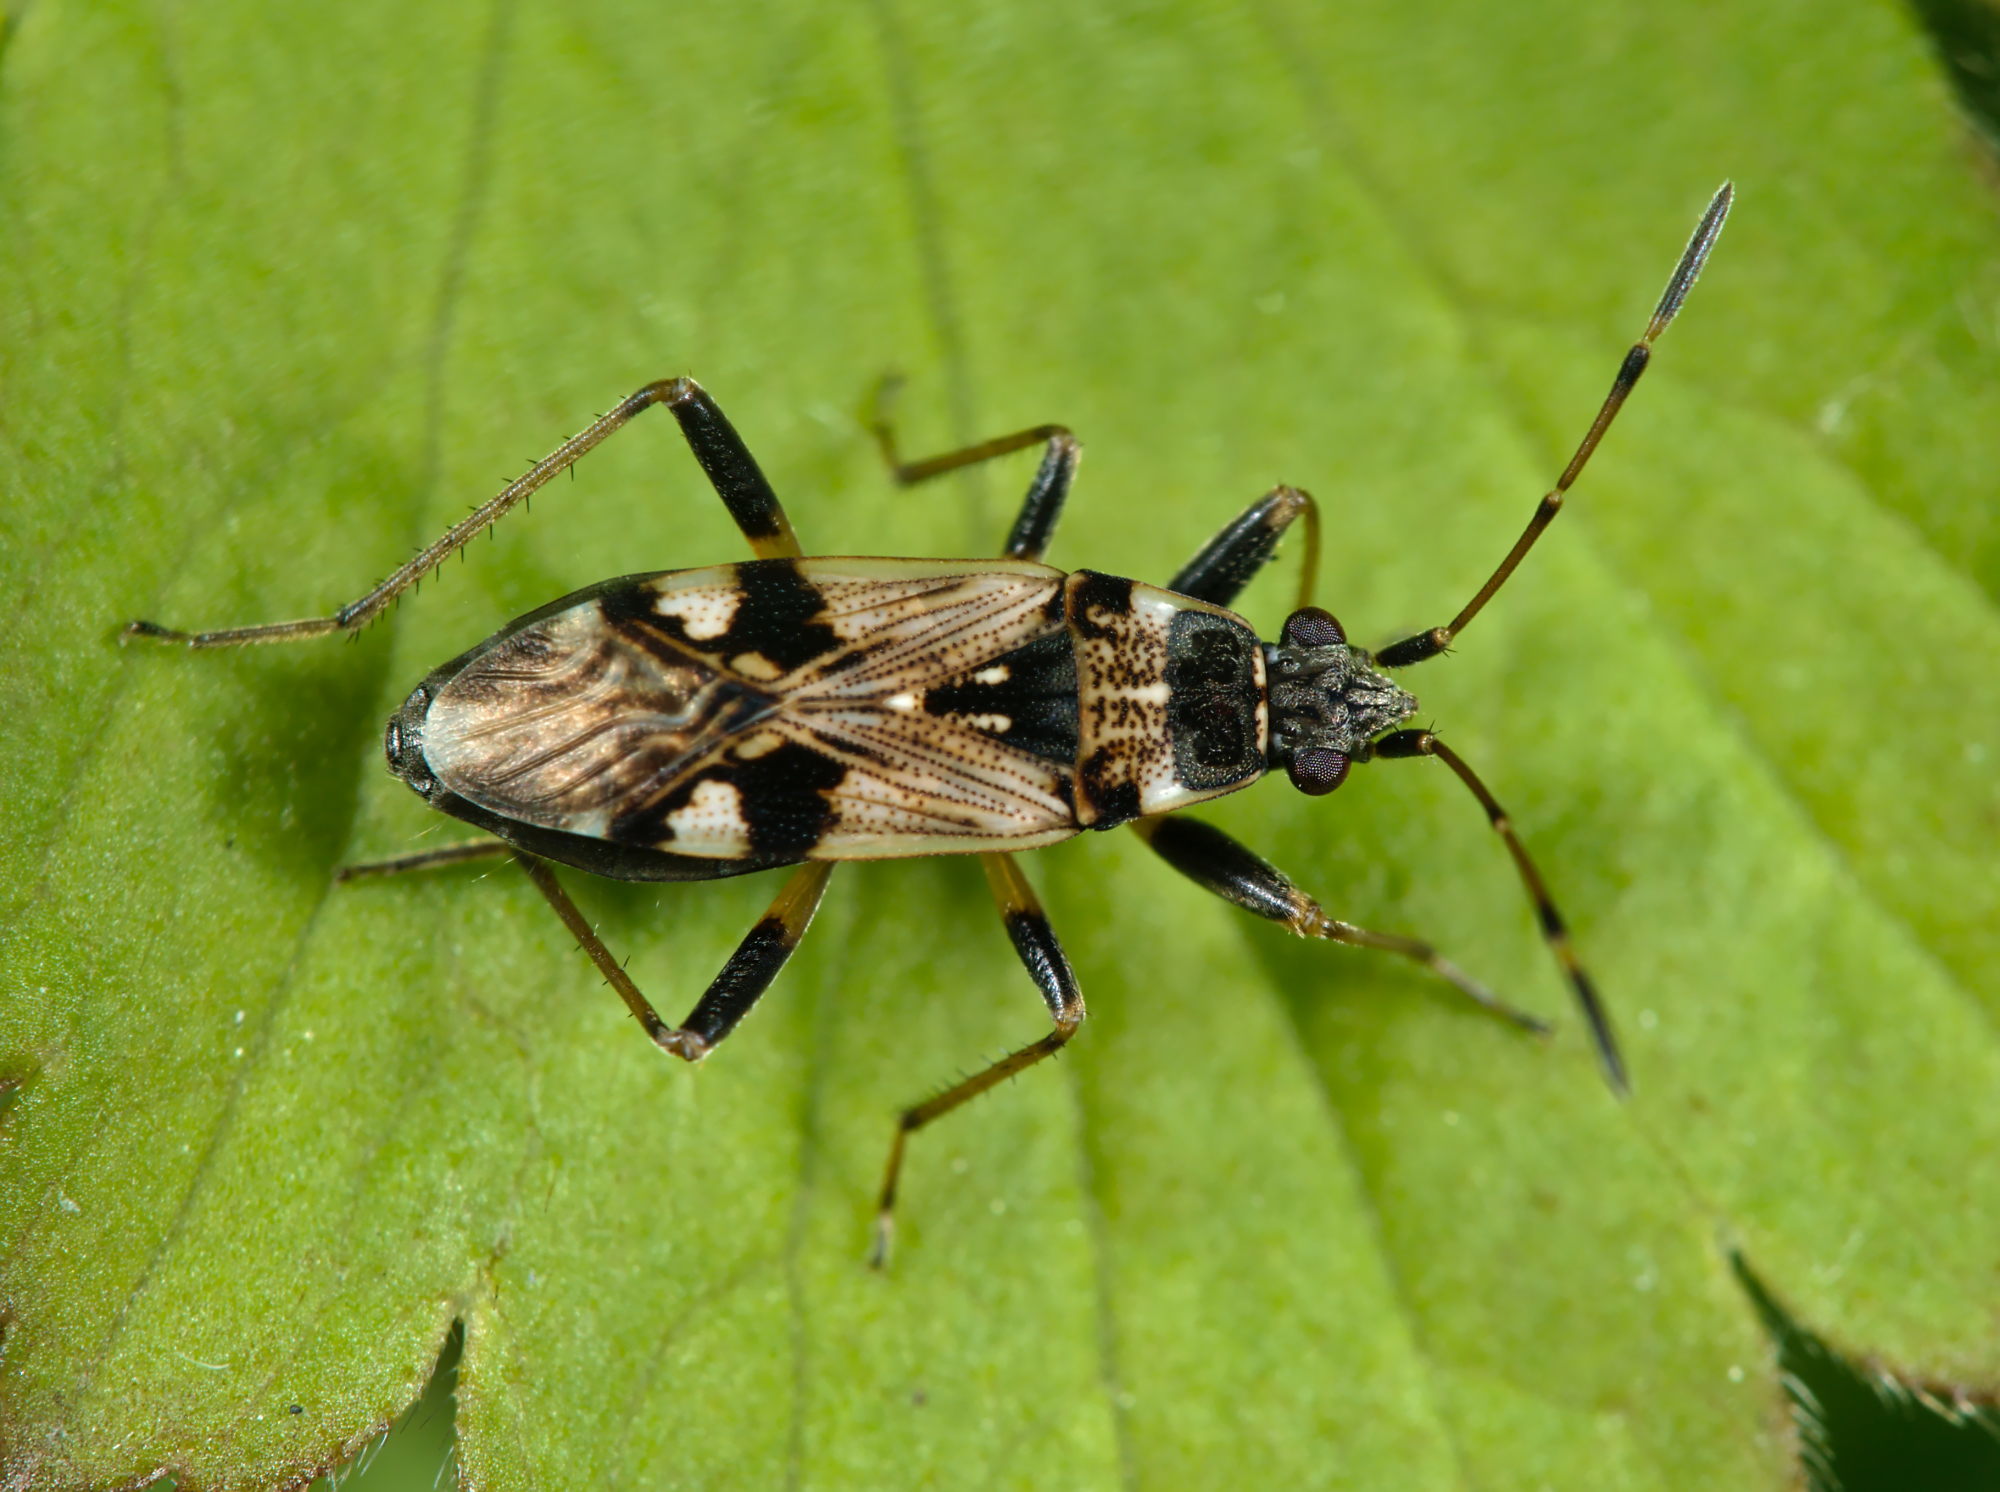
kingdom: Animalia
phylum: Arthropoda
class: Insecta
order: Hemiptera
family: Rhyparochromidae
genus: Beosus
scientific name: Beosus maritimus
